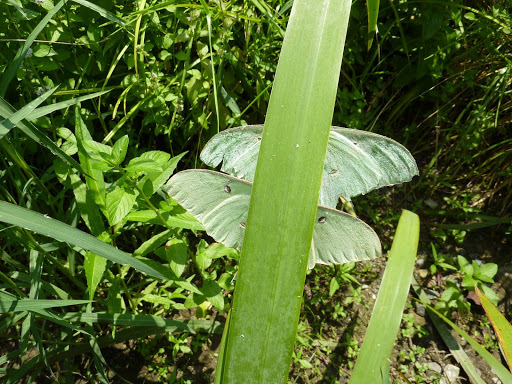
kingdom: Animalia
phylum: Arthropoda
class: Insecta
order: Lepidoptera
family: Saturniidae
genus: Actias
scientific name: Actias luna
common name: Luna moth
